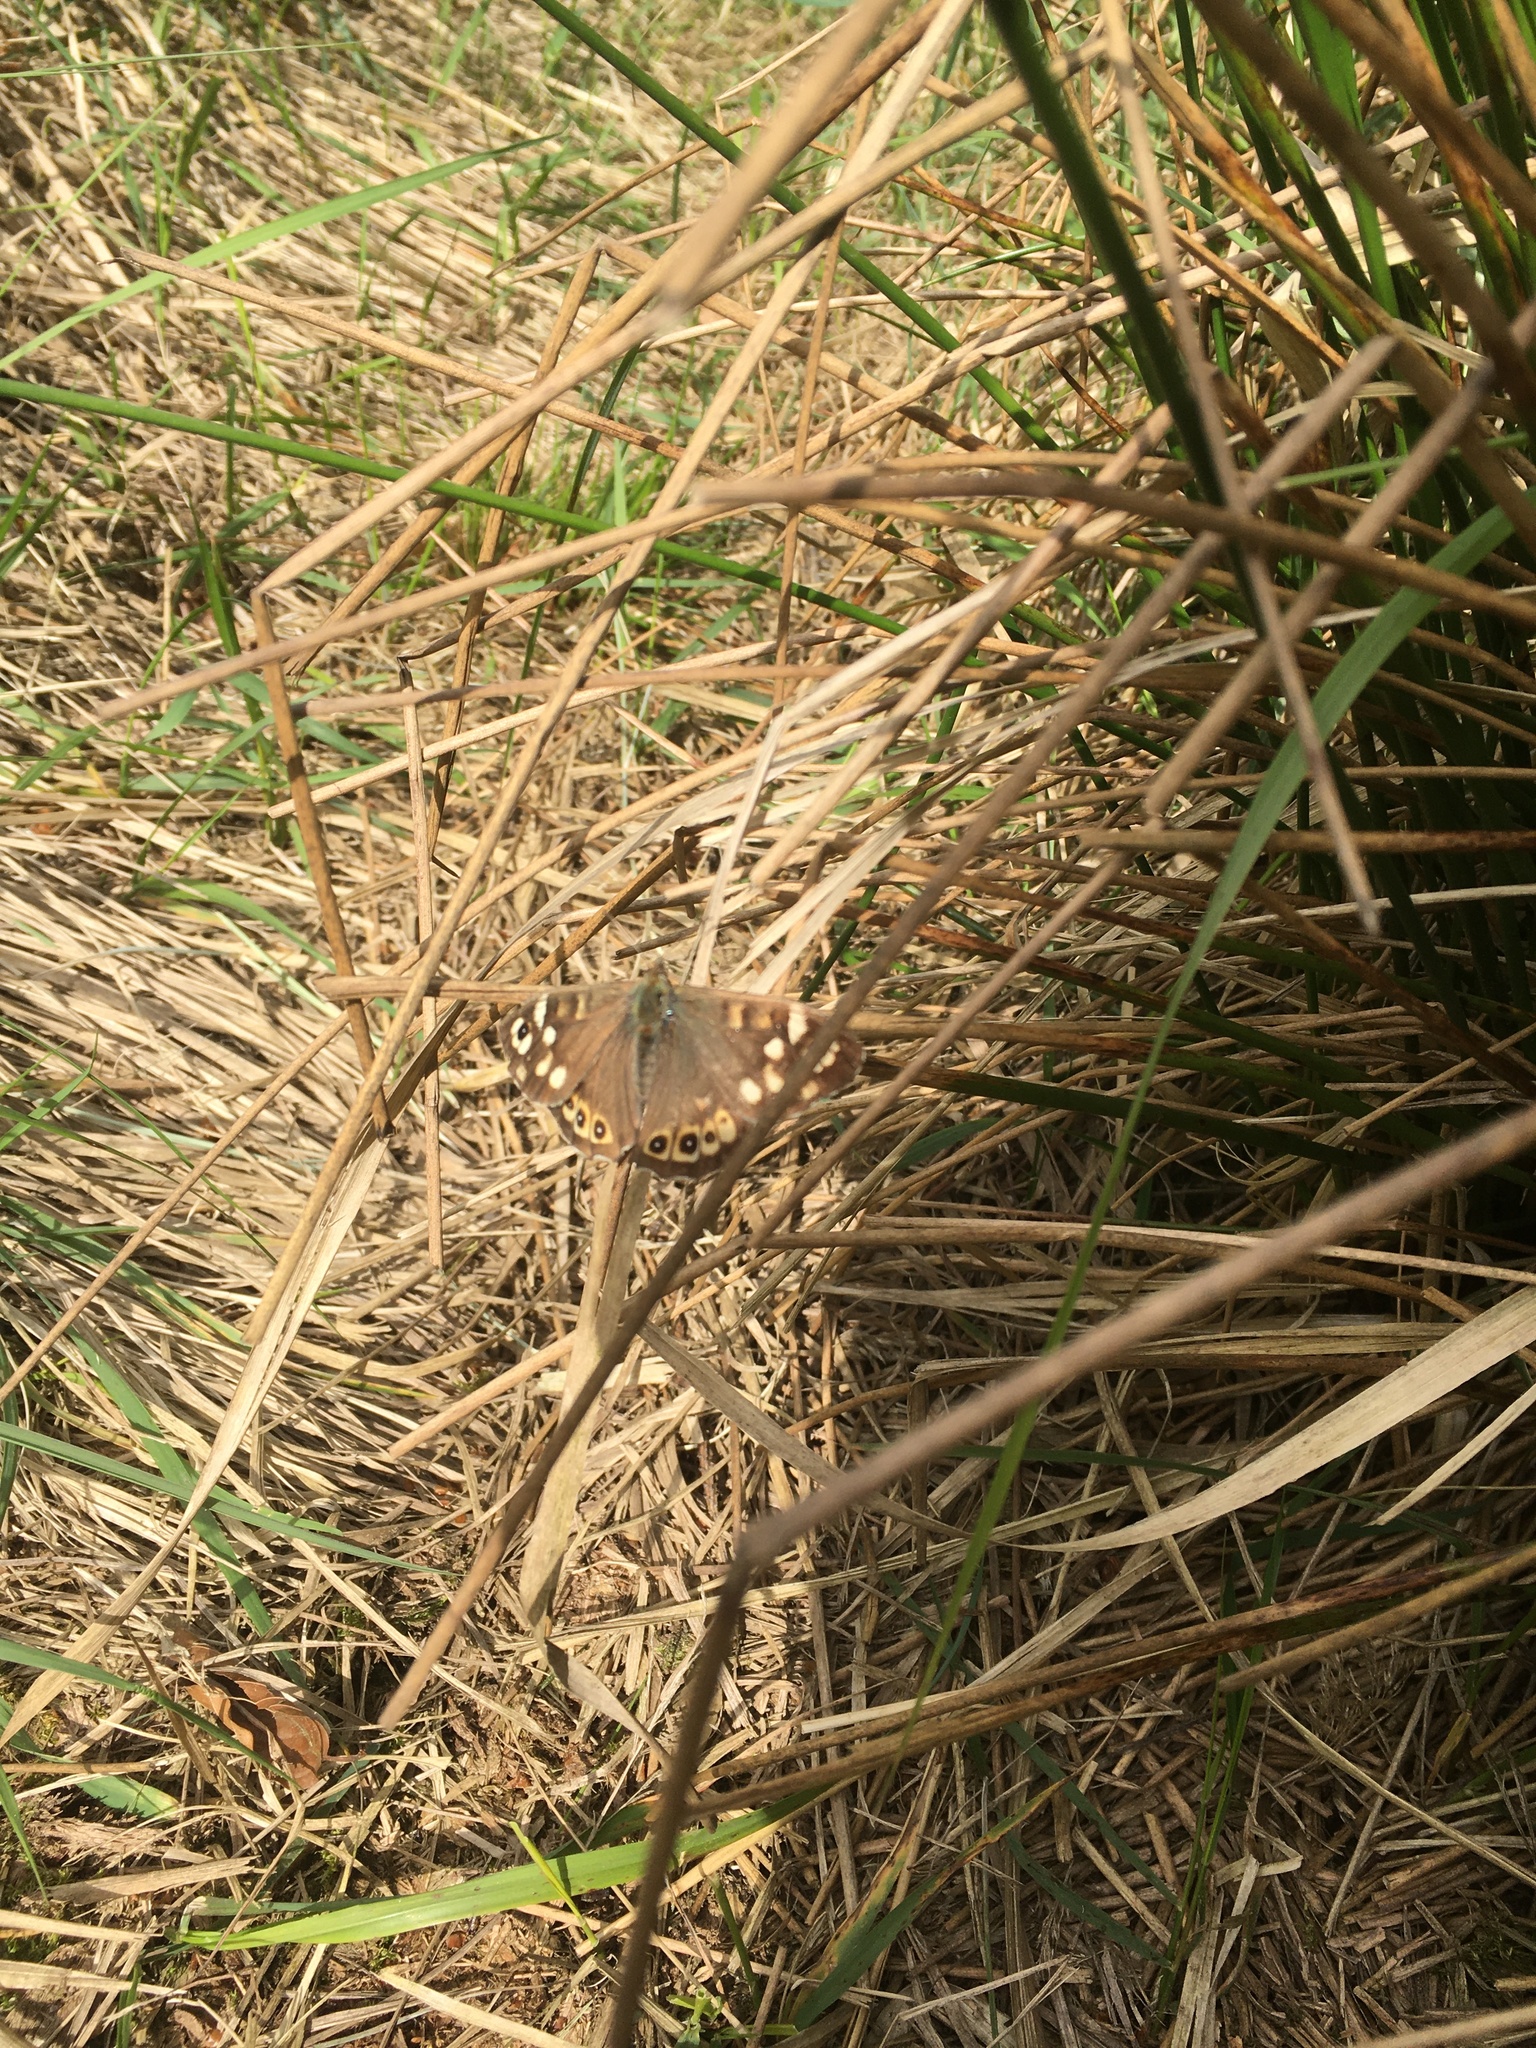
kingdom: Animalia
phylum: Arthropoda
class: Insecta
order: Lepidoptera
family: Nymphalidae
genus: Pararge
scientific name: Pararge aegeria
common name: Speckled wood
